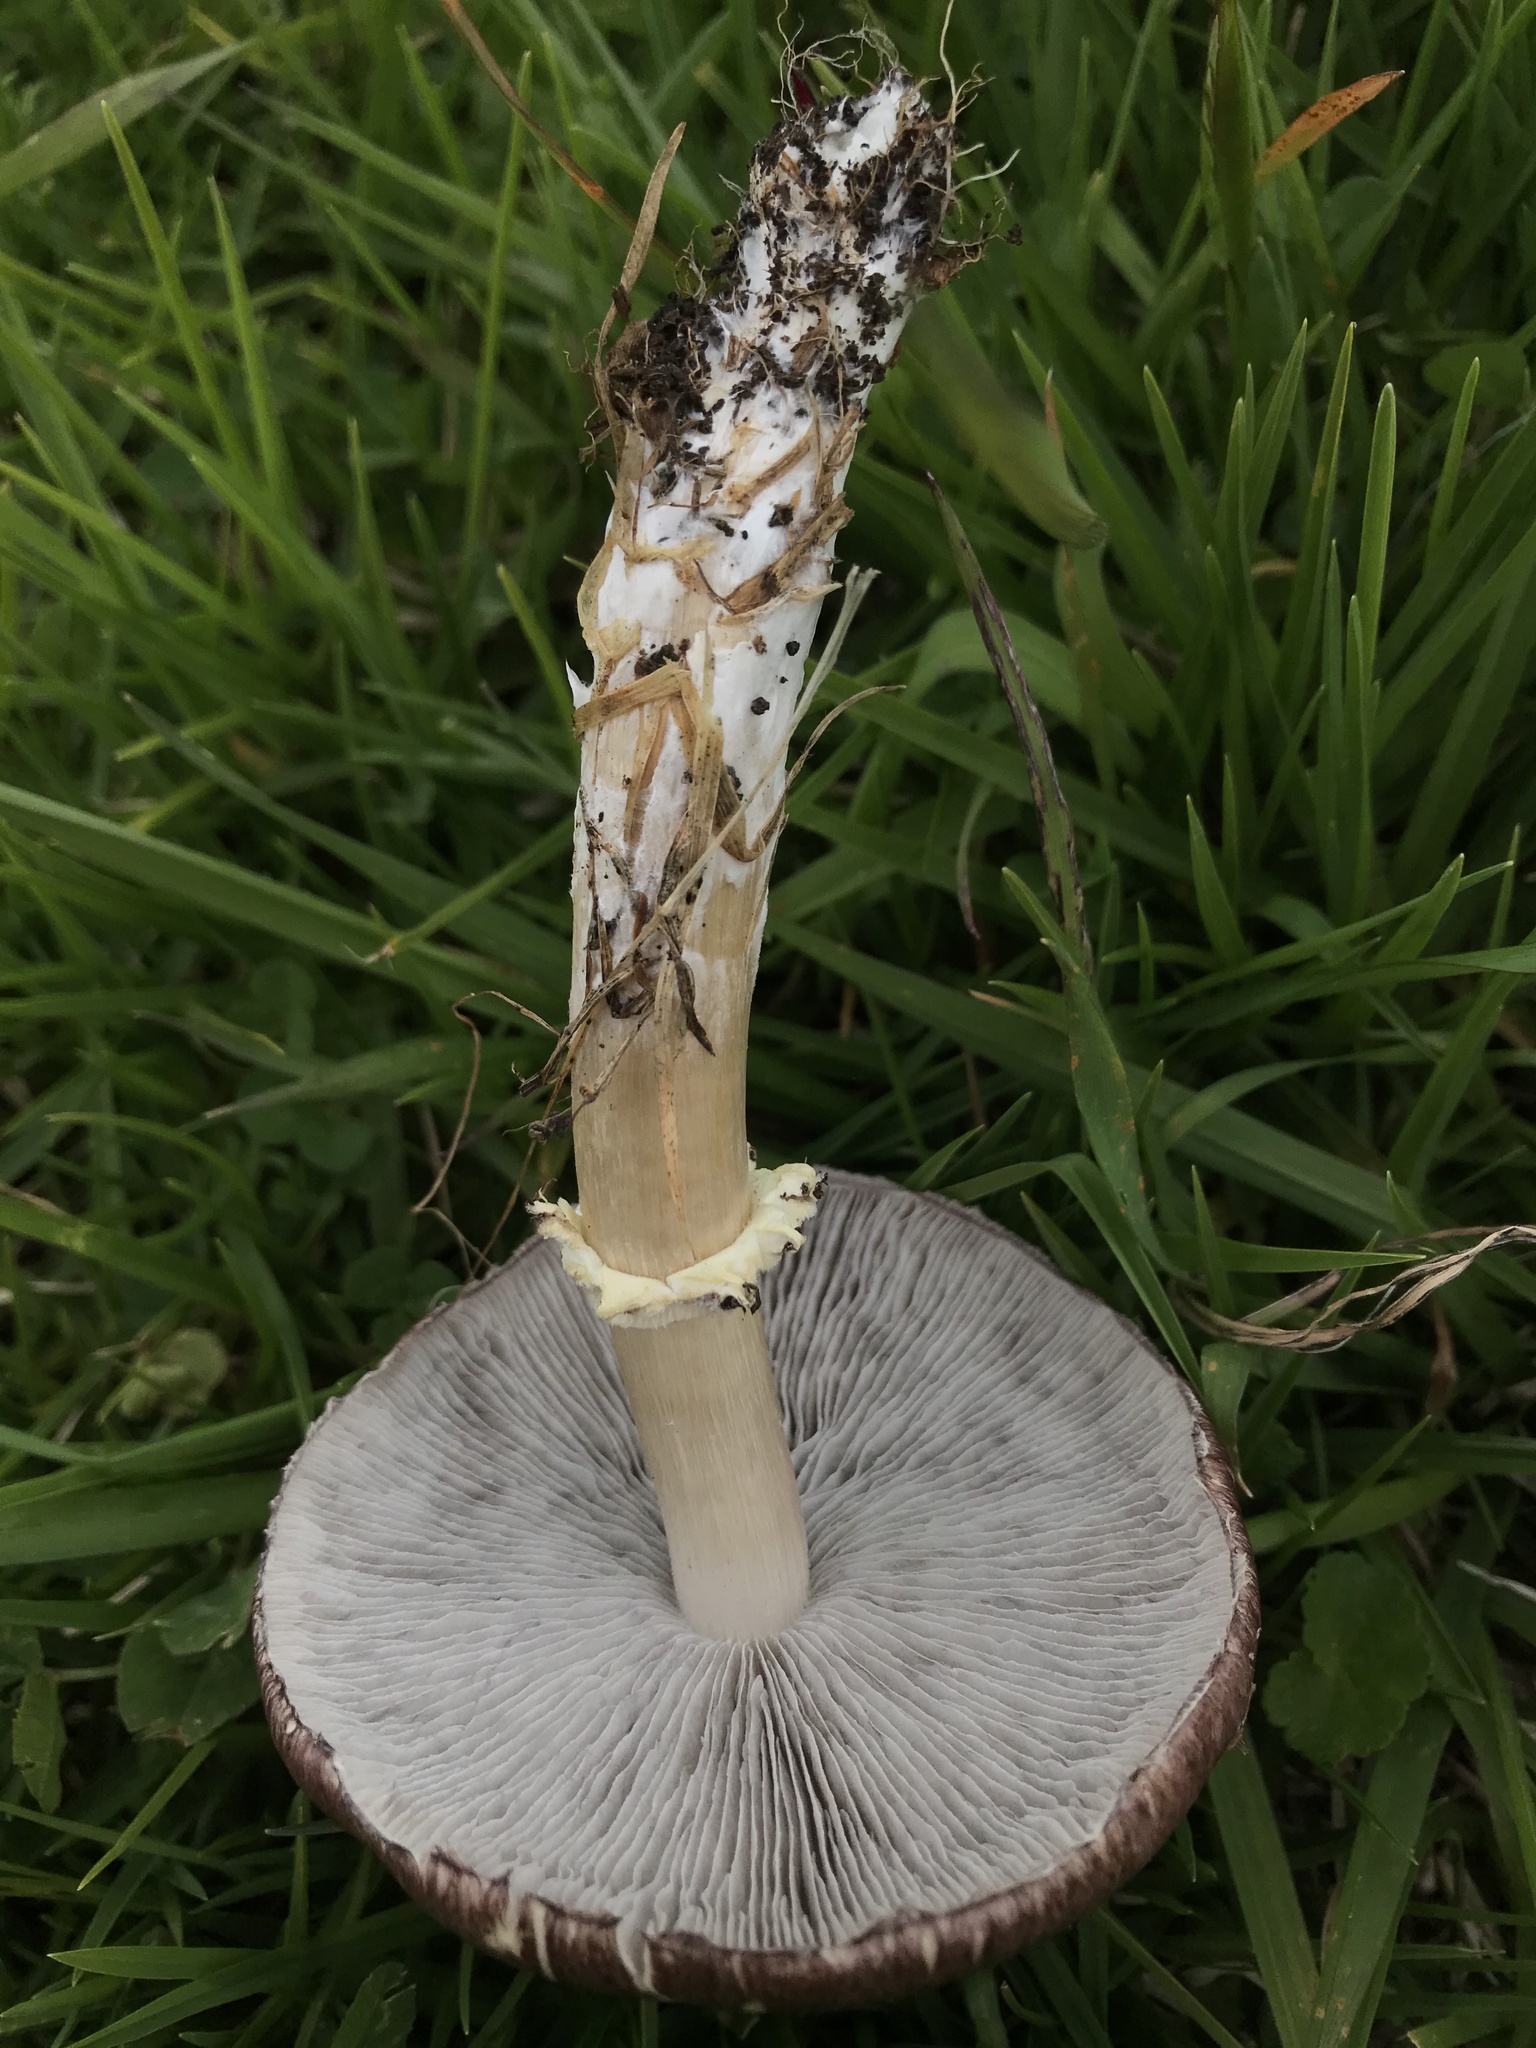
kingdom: Fungi
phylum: Basidiomycota
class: Agaricomycetes
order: Agaricales
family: Strophariaceae
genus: Stropharia
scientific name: Stropharia rugosoannulata
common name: Wine roundhead
